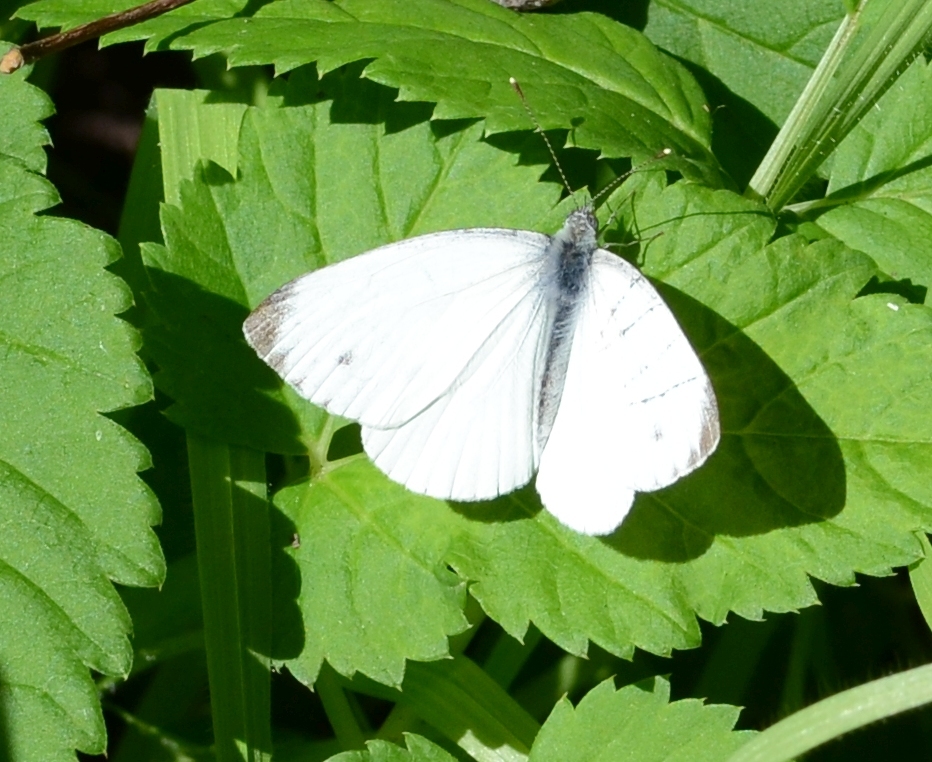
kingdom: Animalia
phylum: Arthropoda
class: Insecta
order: Lepidoptera
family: Pieridae
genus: Pieris
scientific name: Pieris napi
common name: Green-veined white
